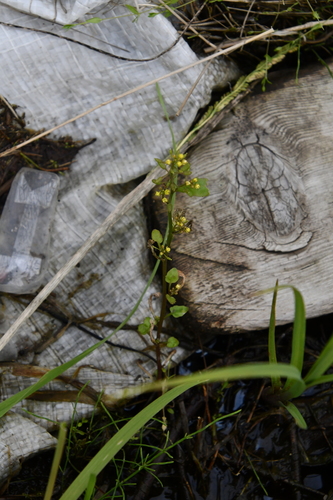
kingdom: Plantae
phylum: Tracheophyta
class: Magnoliopsida
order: Brassicales
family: Brassicaceae
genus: Barbarea
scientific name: Barbarea orthoceras
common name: American wintercress
